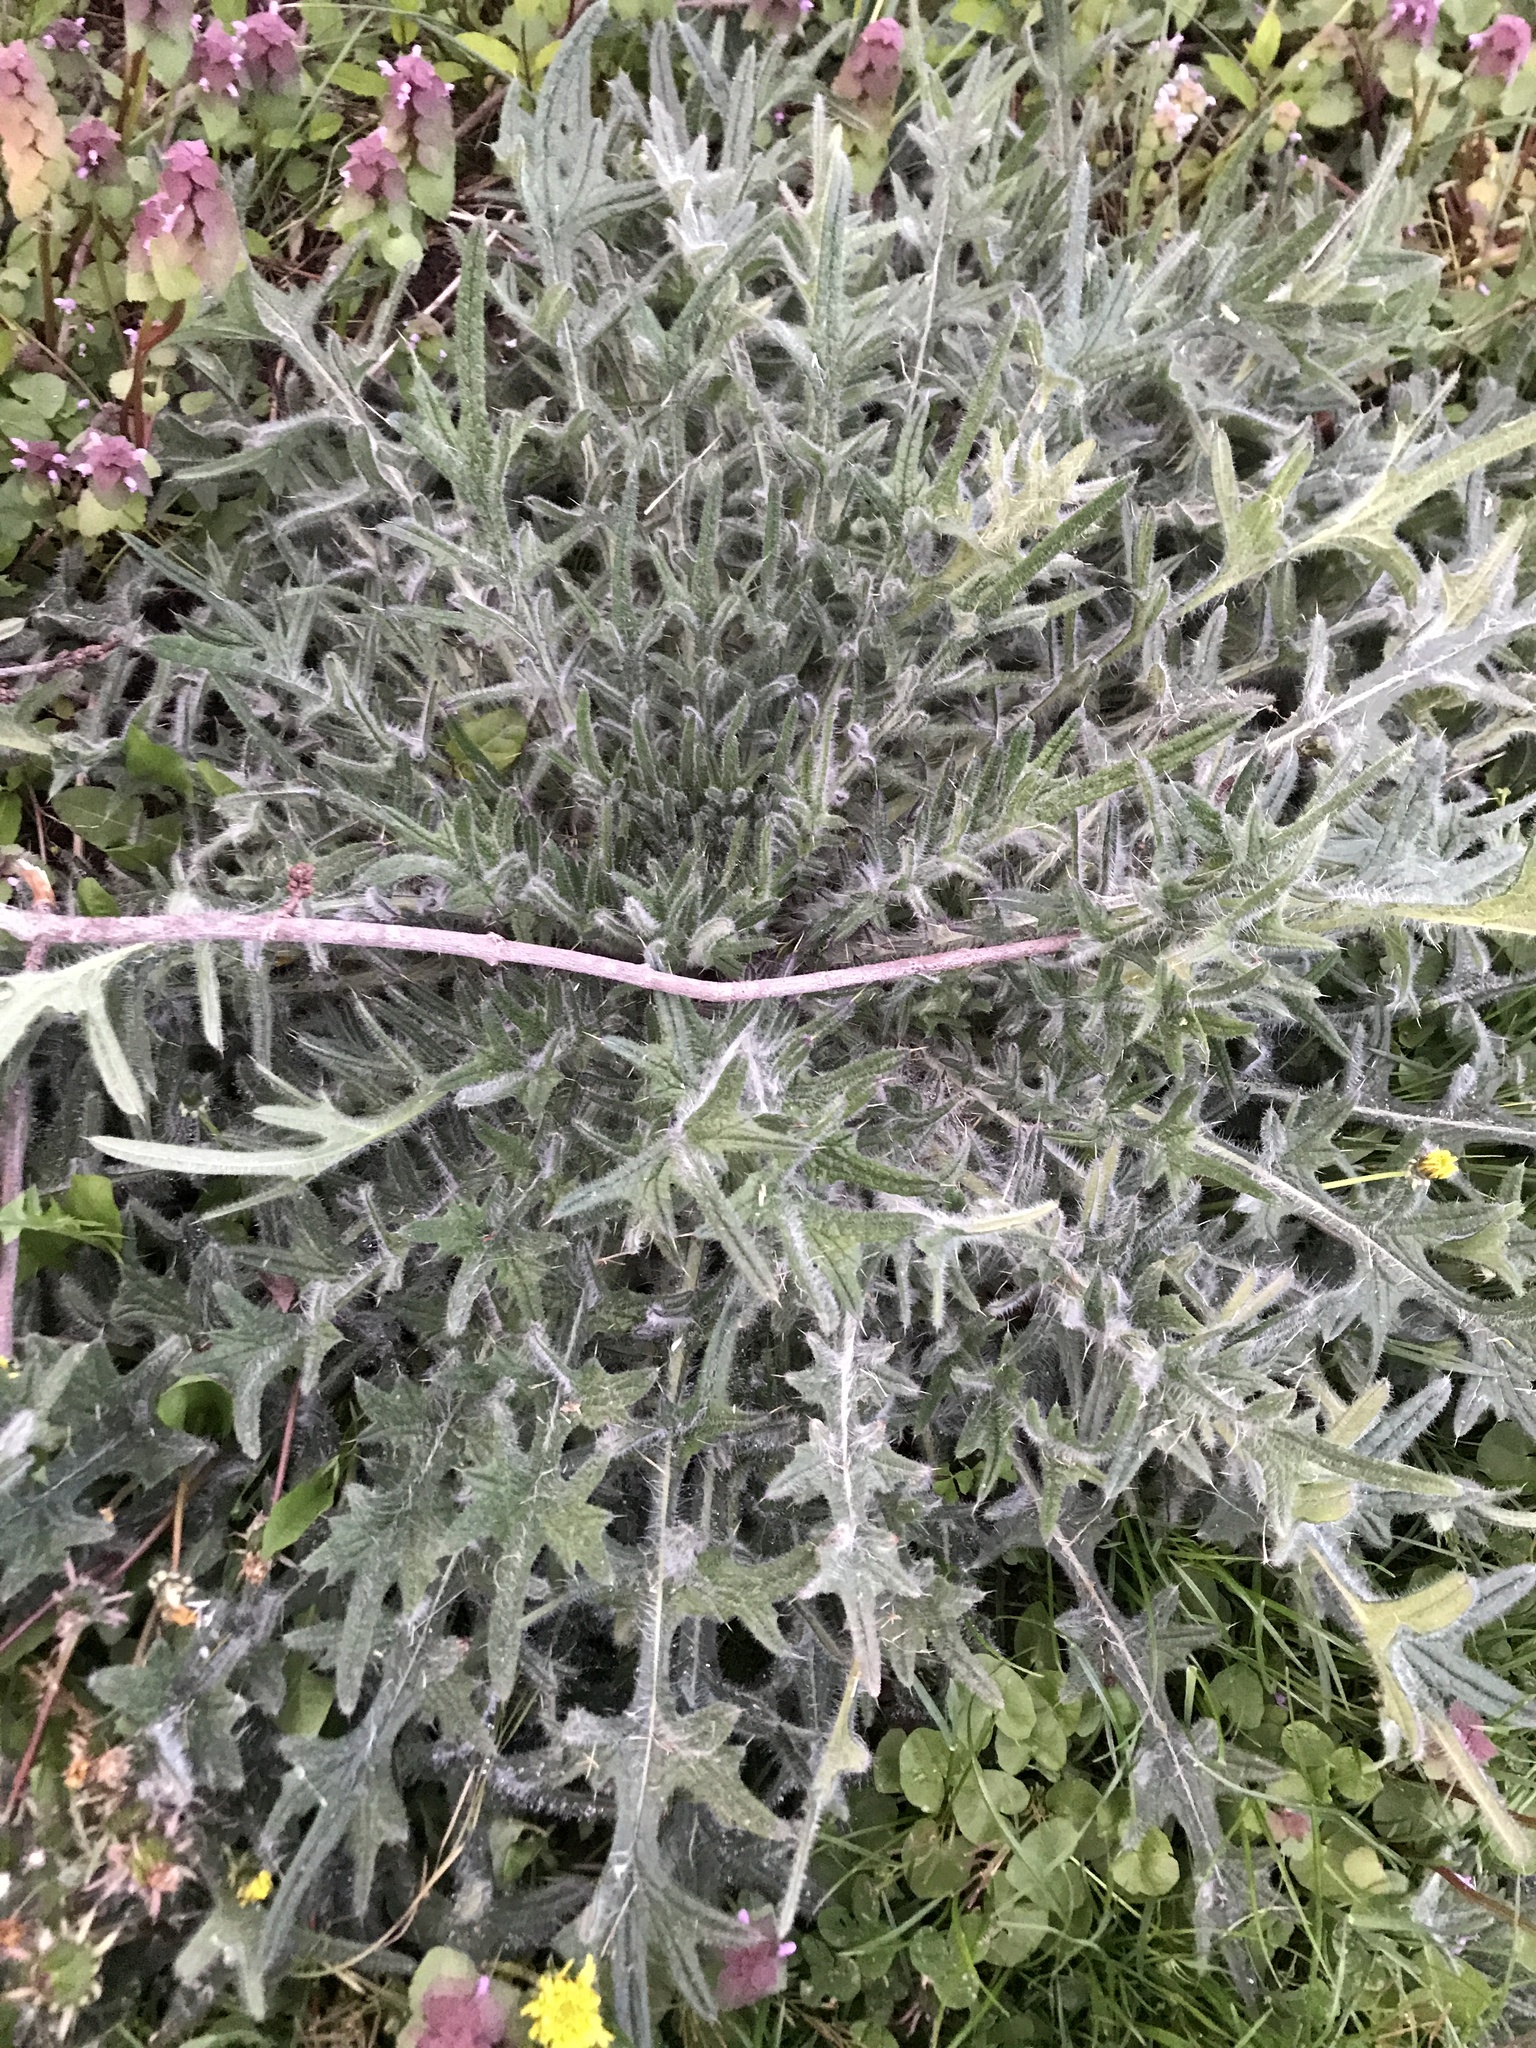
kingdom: Plantae
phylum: Tracheophyta
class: Magnoliopsida
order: Asterales
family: Asteraceae
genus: Cirsium
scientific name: Cirsium vulgare
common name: Bull thistle
